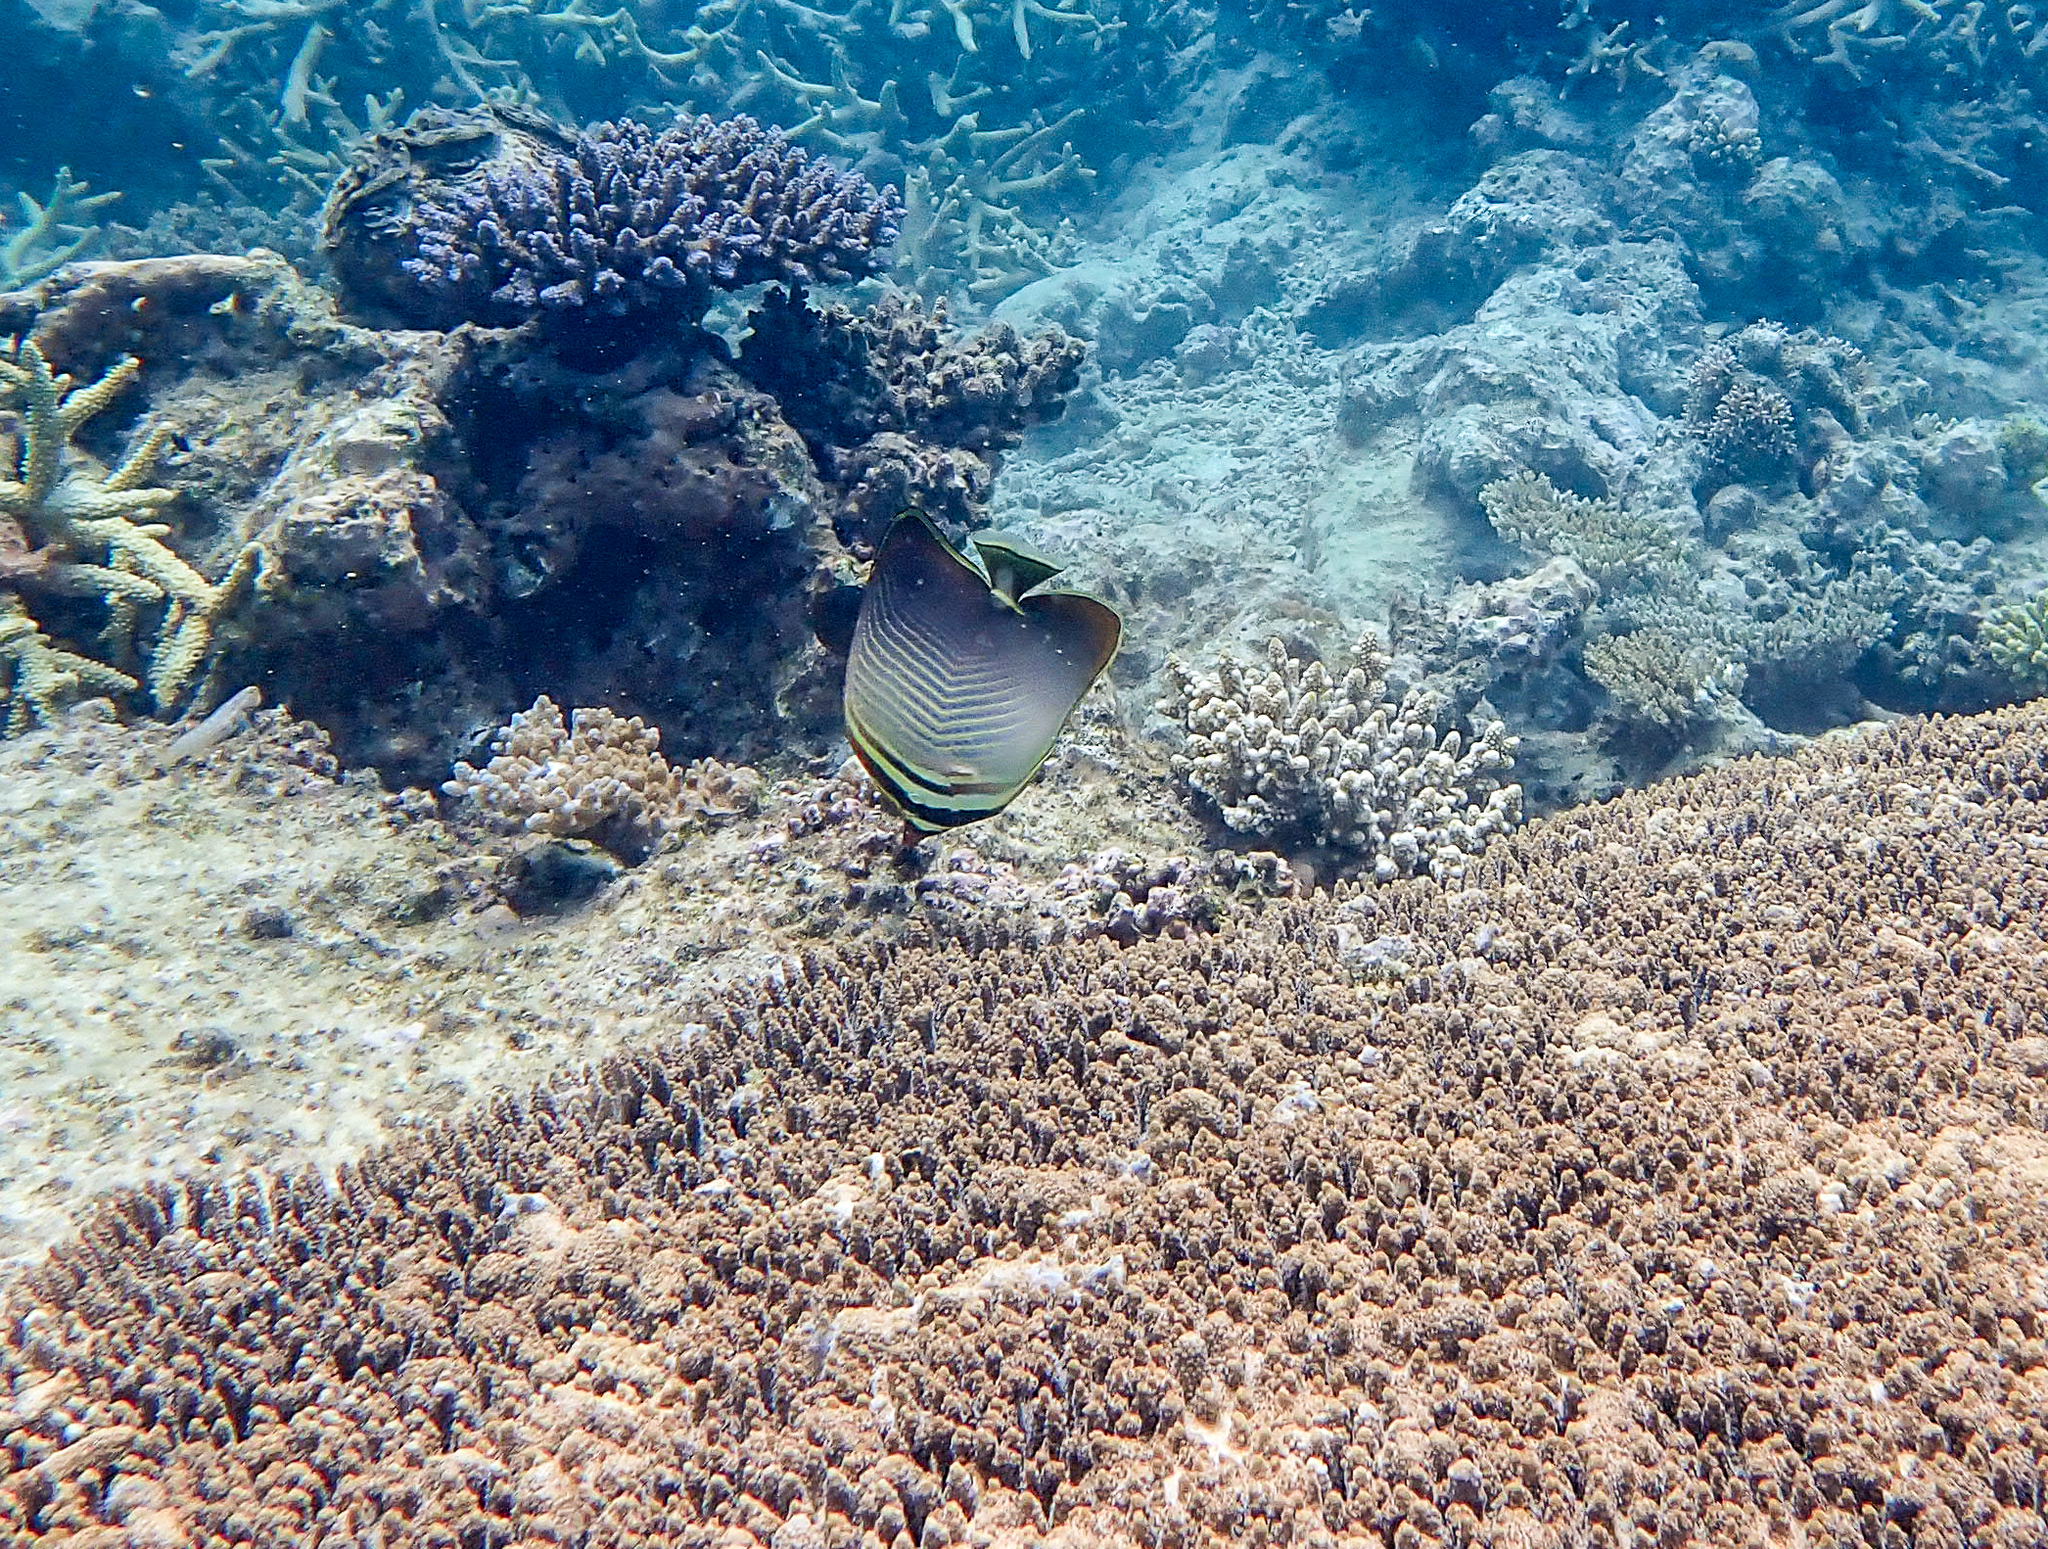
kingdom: Animalia
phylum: Chordata
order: Perciformes
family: Chaetodontidae
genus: Chaetodon
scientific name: Chaetodon baronessa
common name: Triangular butterflyfish
